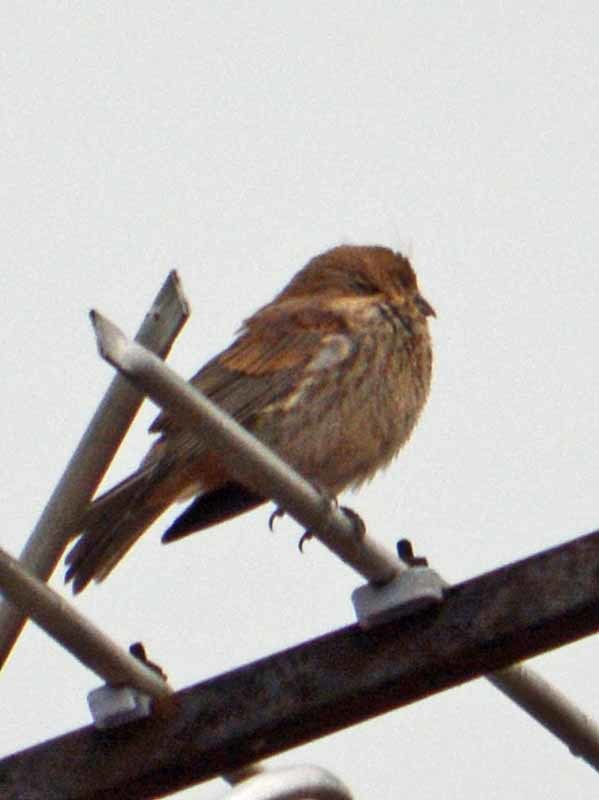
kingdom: Animalia
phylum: Chordata
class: Aves
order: Passeriformes
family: Fringillidae
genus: Haemorhous
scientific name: Haemorhous mexicanus
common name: House finch
